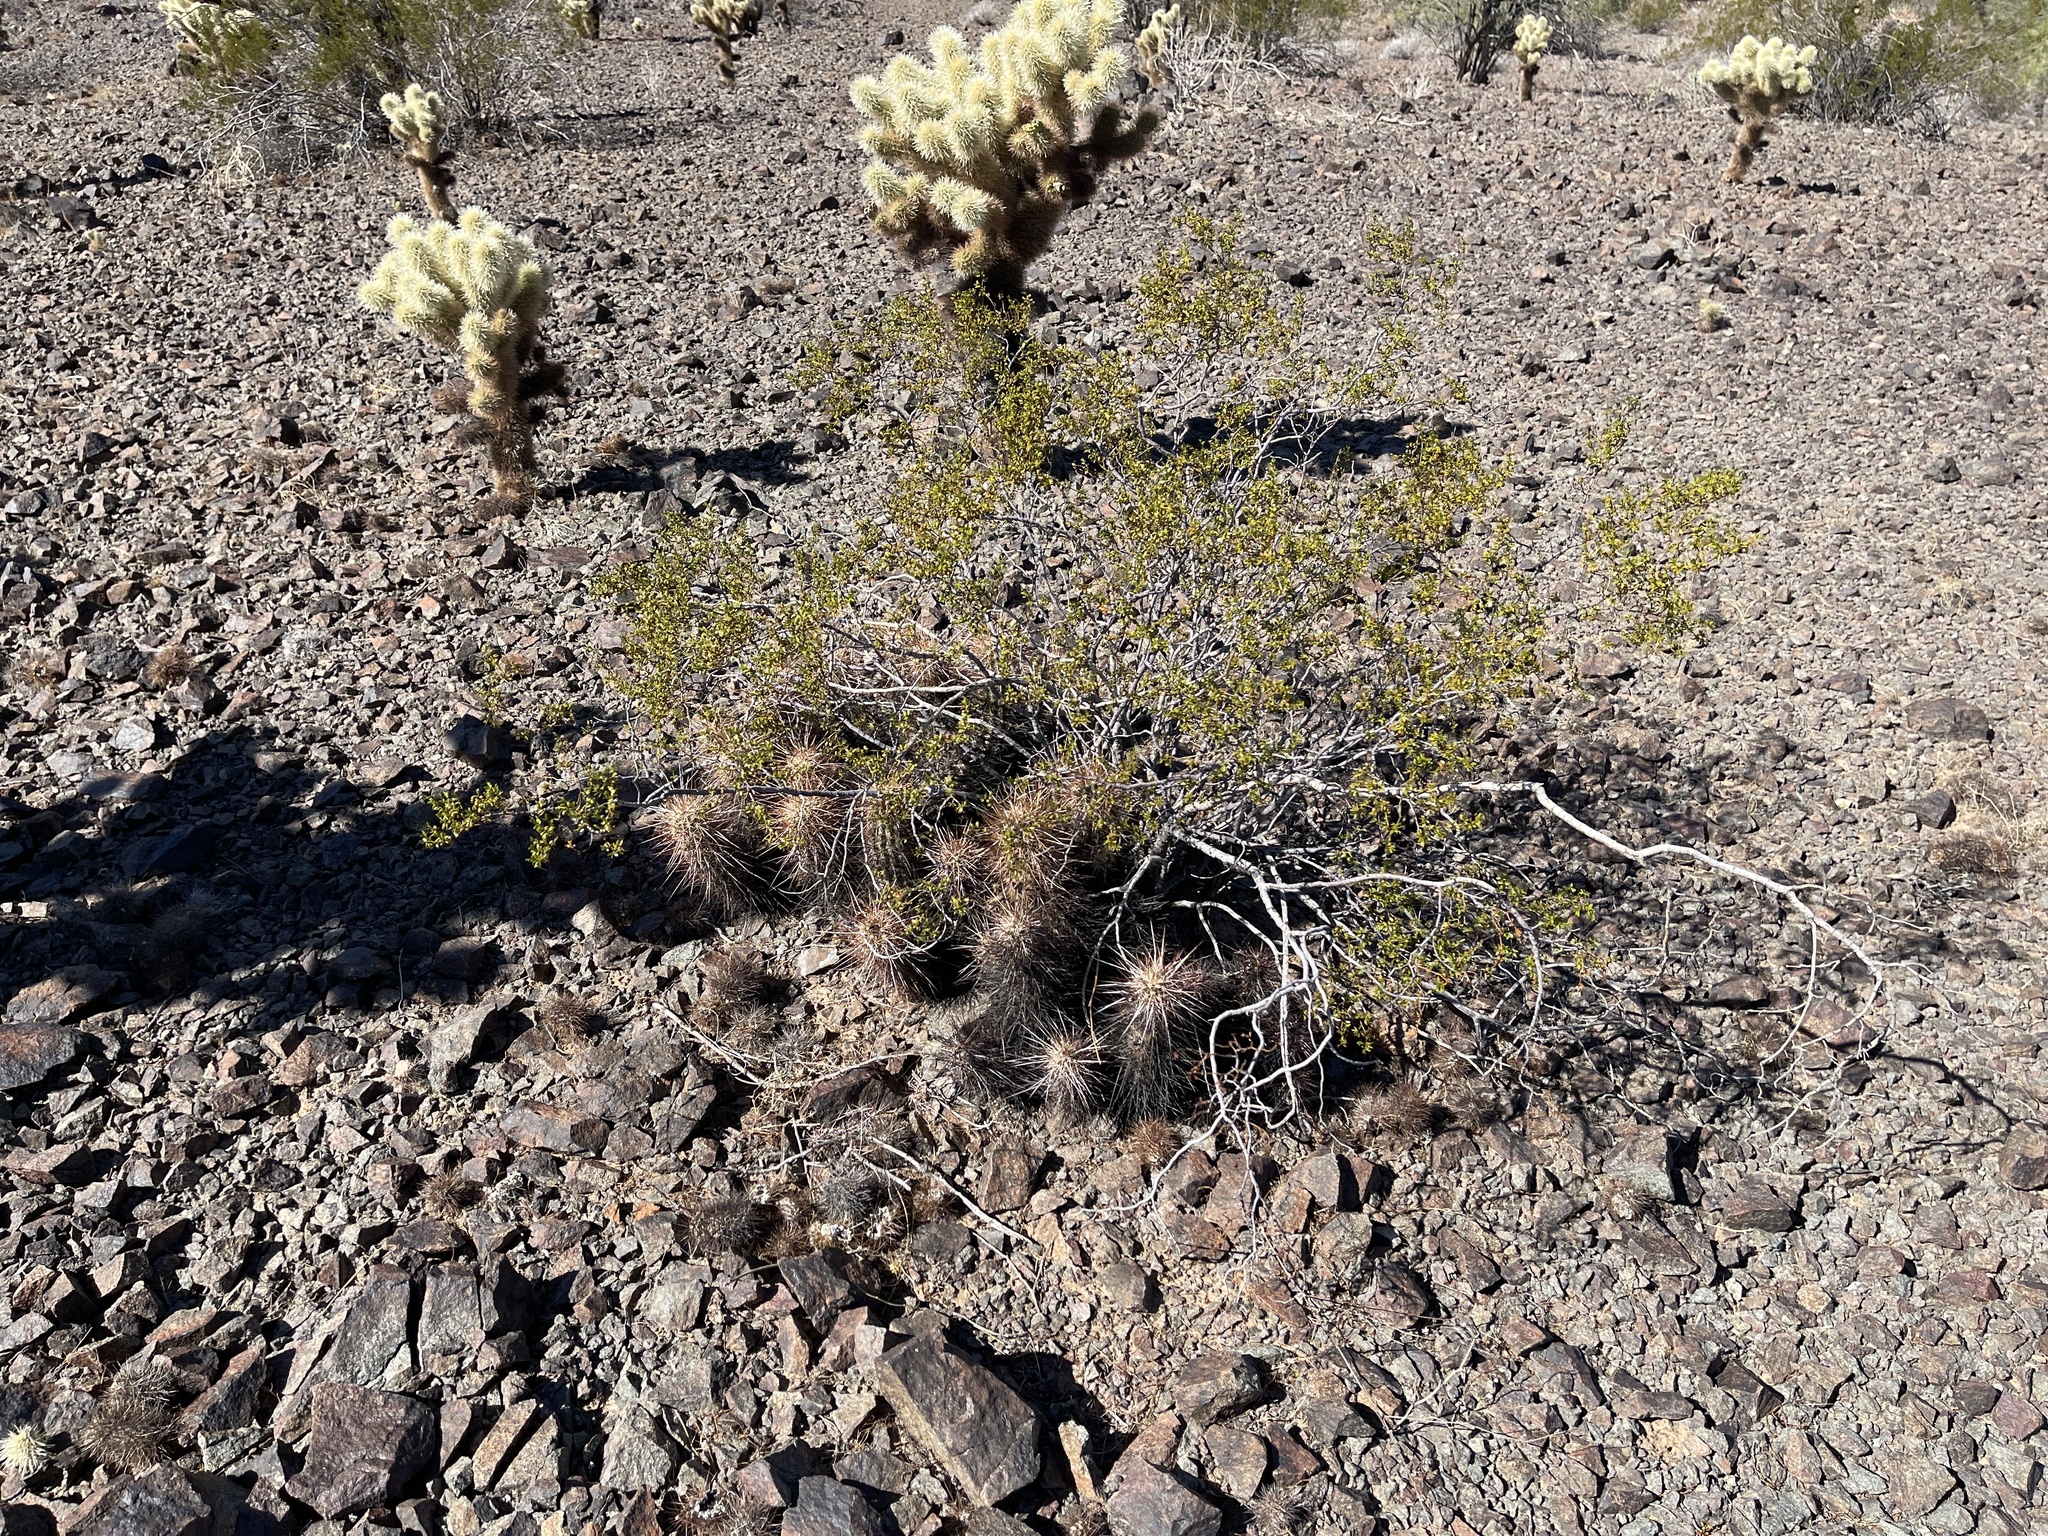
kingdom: Plantae
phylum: Tracheophyta
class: Magnoliopsida
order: Zygophyllales
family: Zygophyllaceae
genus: Larrea
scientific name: Larrea tridentata
